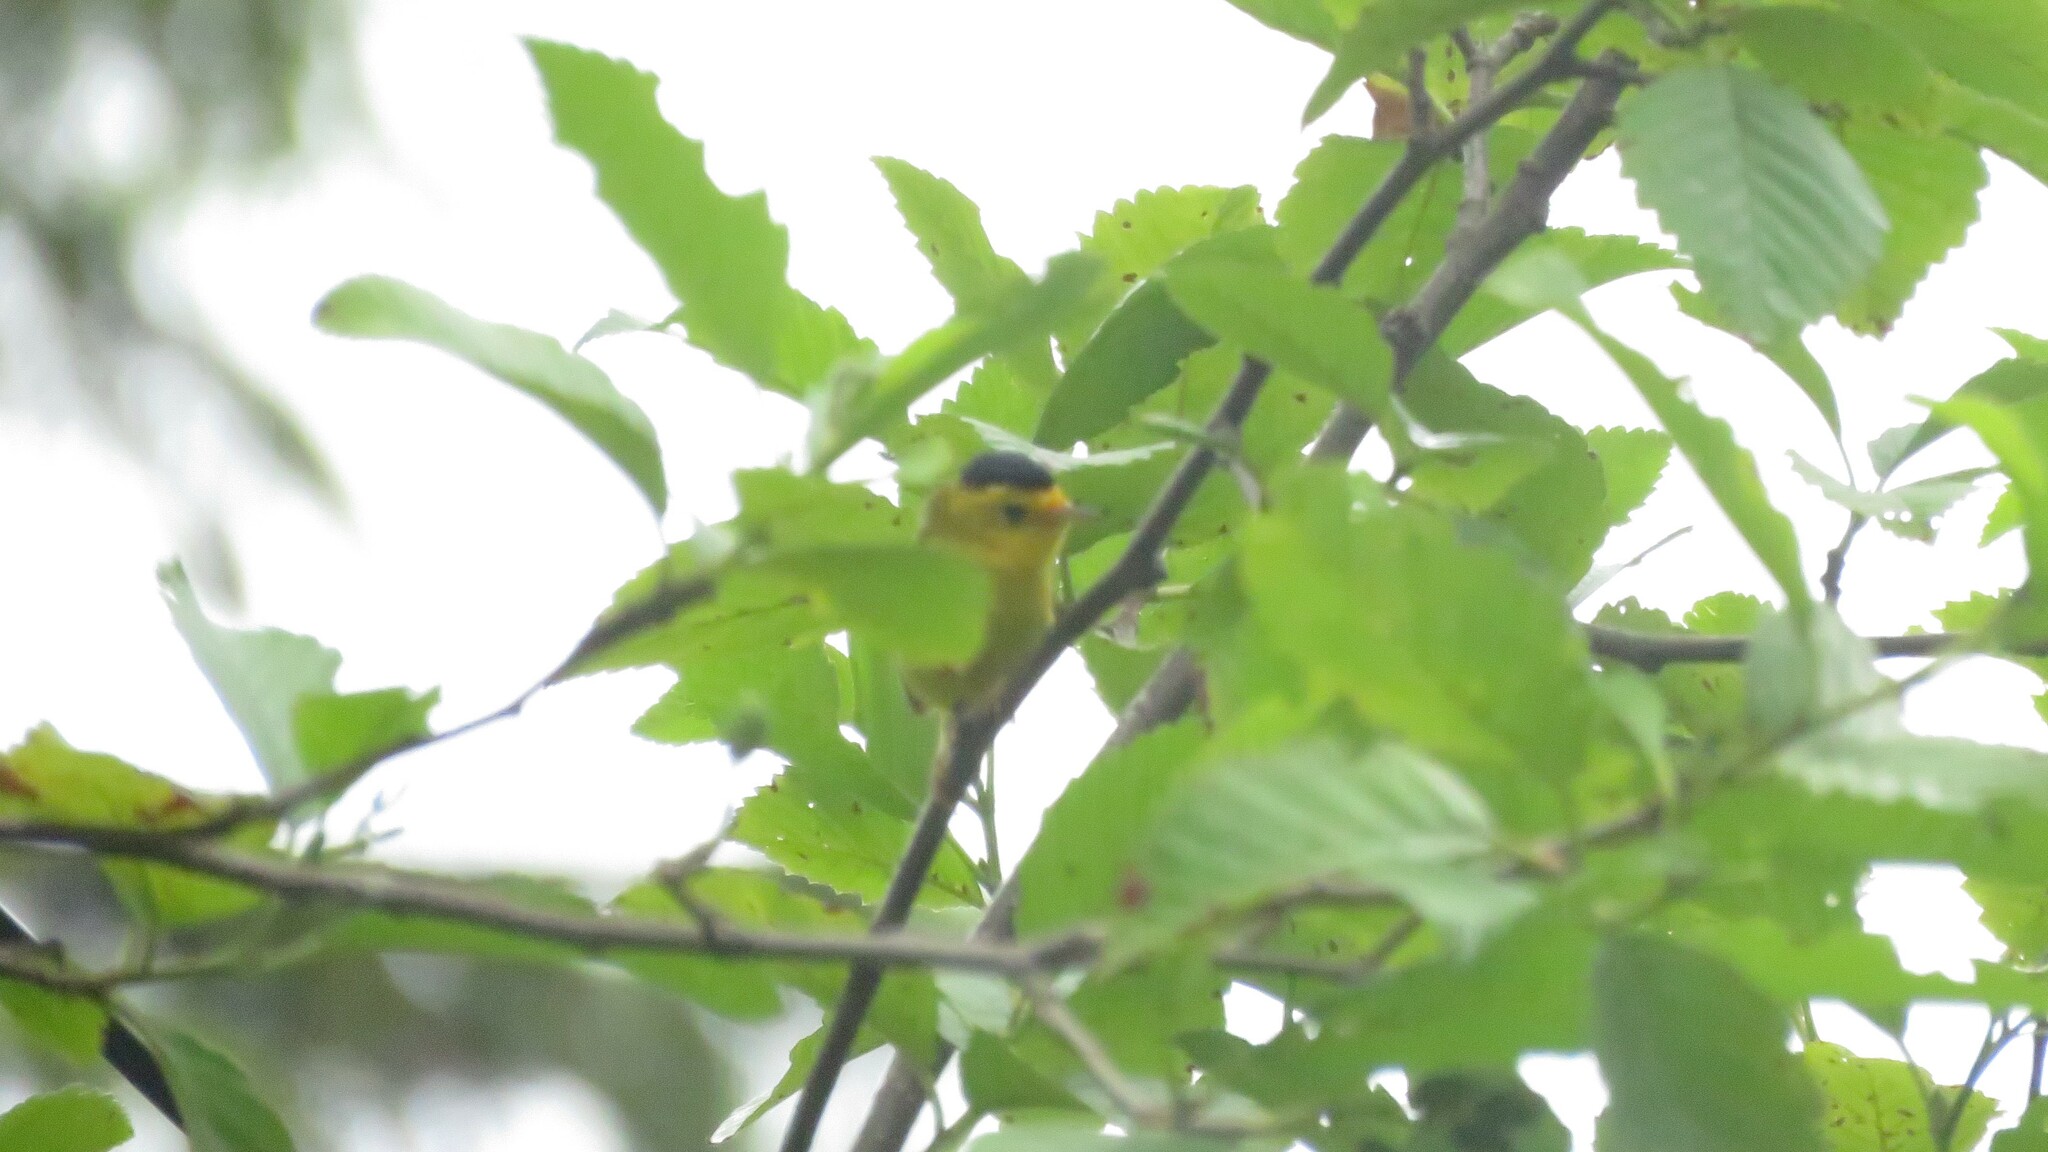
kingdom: Animalia
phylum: Chordata
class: Aves
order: Passeriformes
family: Parulidae
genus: Cardellina
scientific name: Cardellina pusilla
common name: Wilson's warbler
